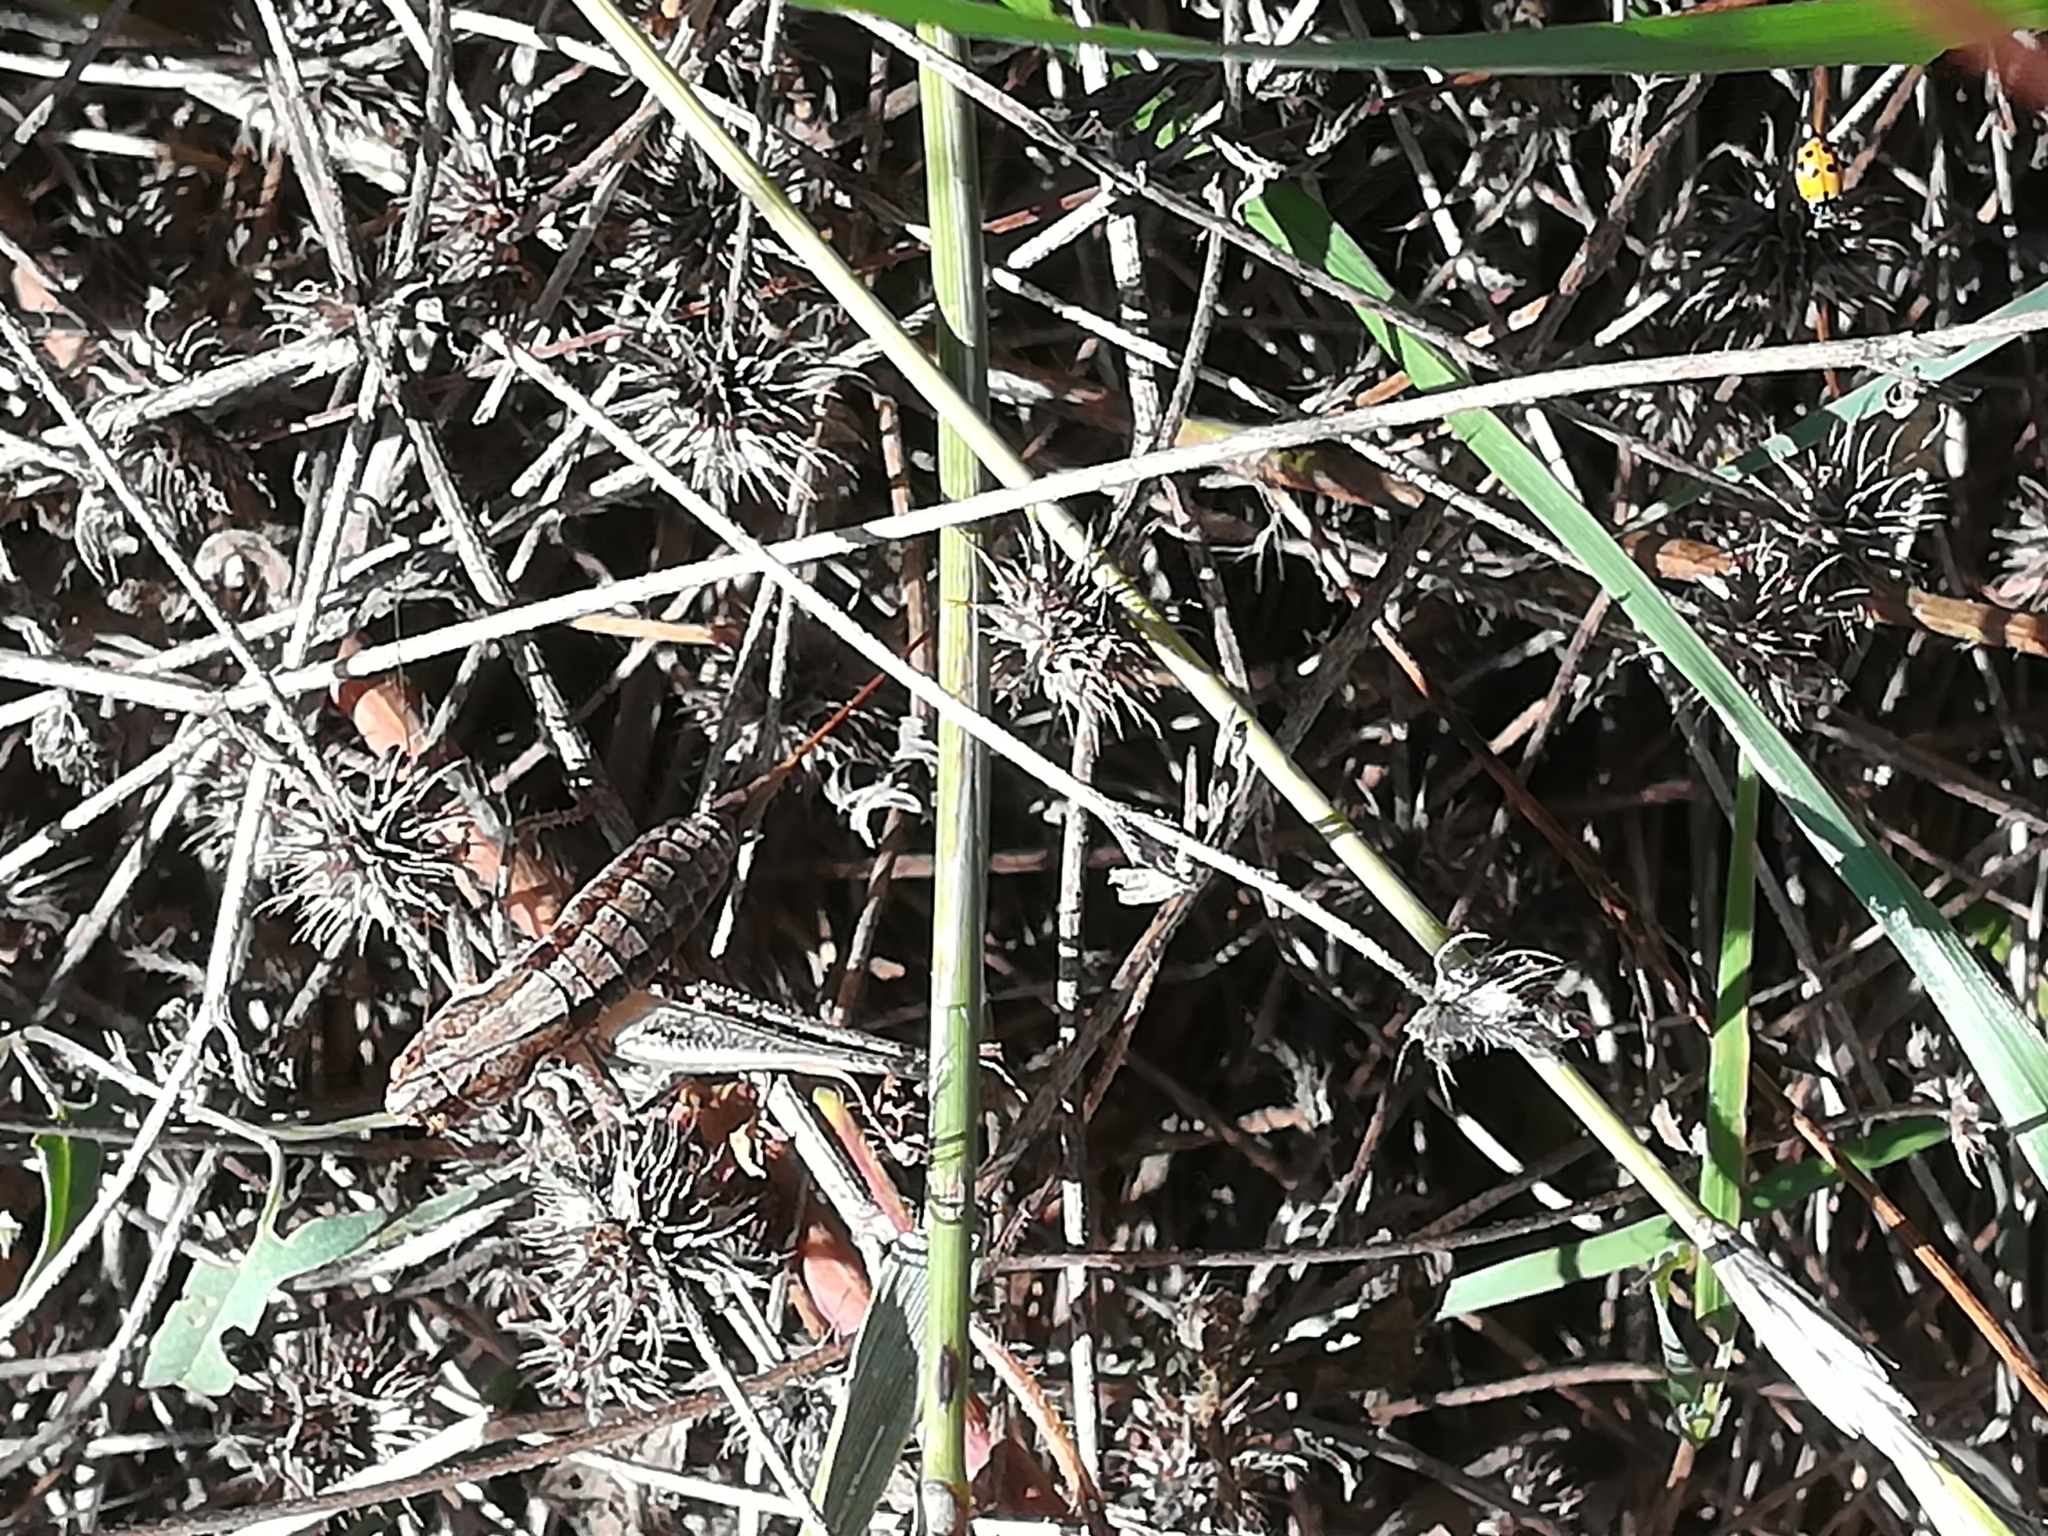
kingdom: Animalia
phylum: Arthropoda
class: Insecta
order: Orthoptera
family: Tettigoniidae
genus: Rhacocleis
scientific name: Rhacocleis germanica
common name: Mediterranean bush-cricket
